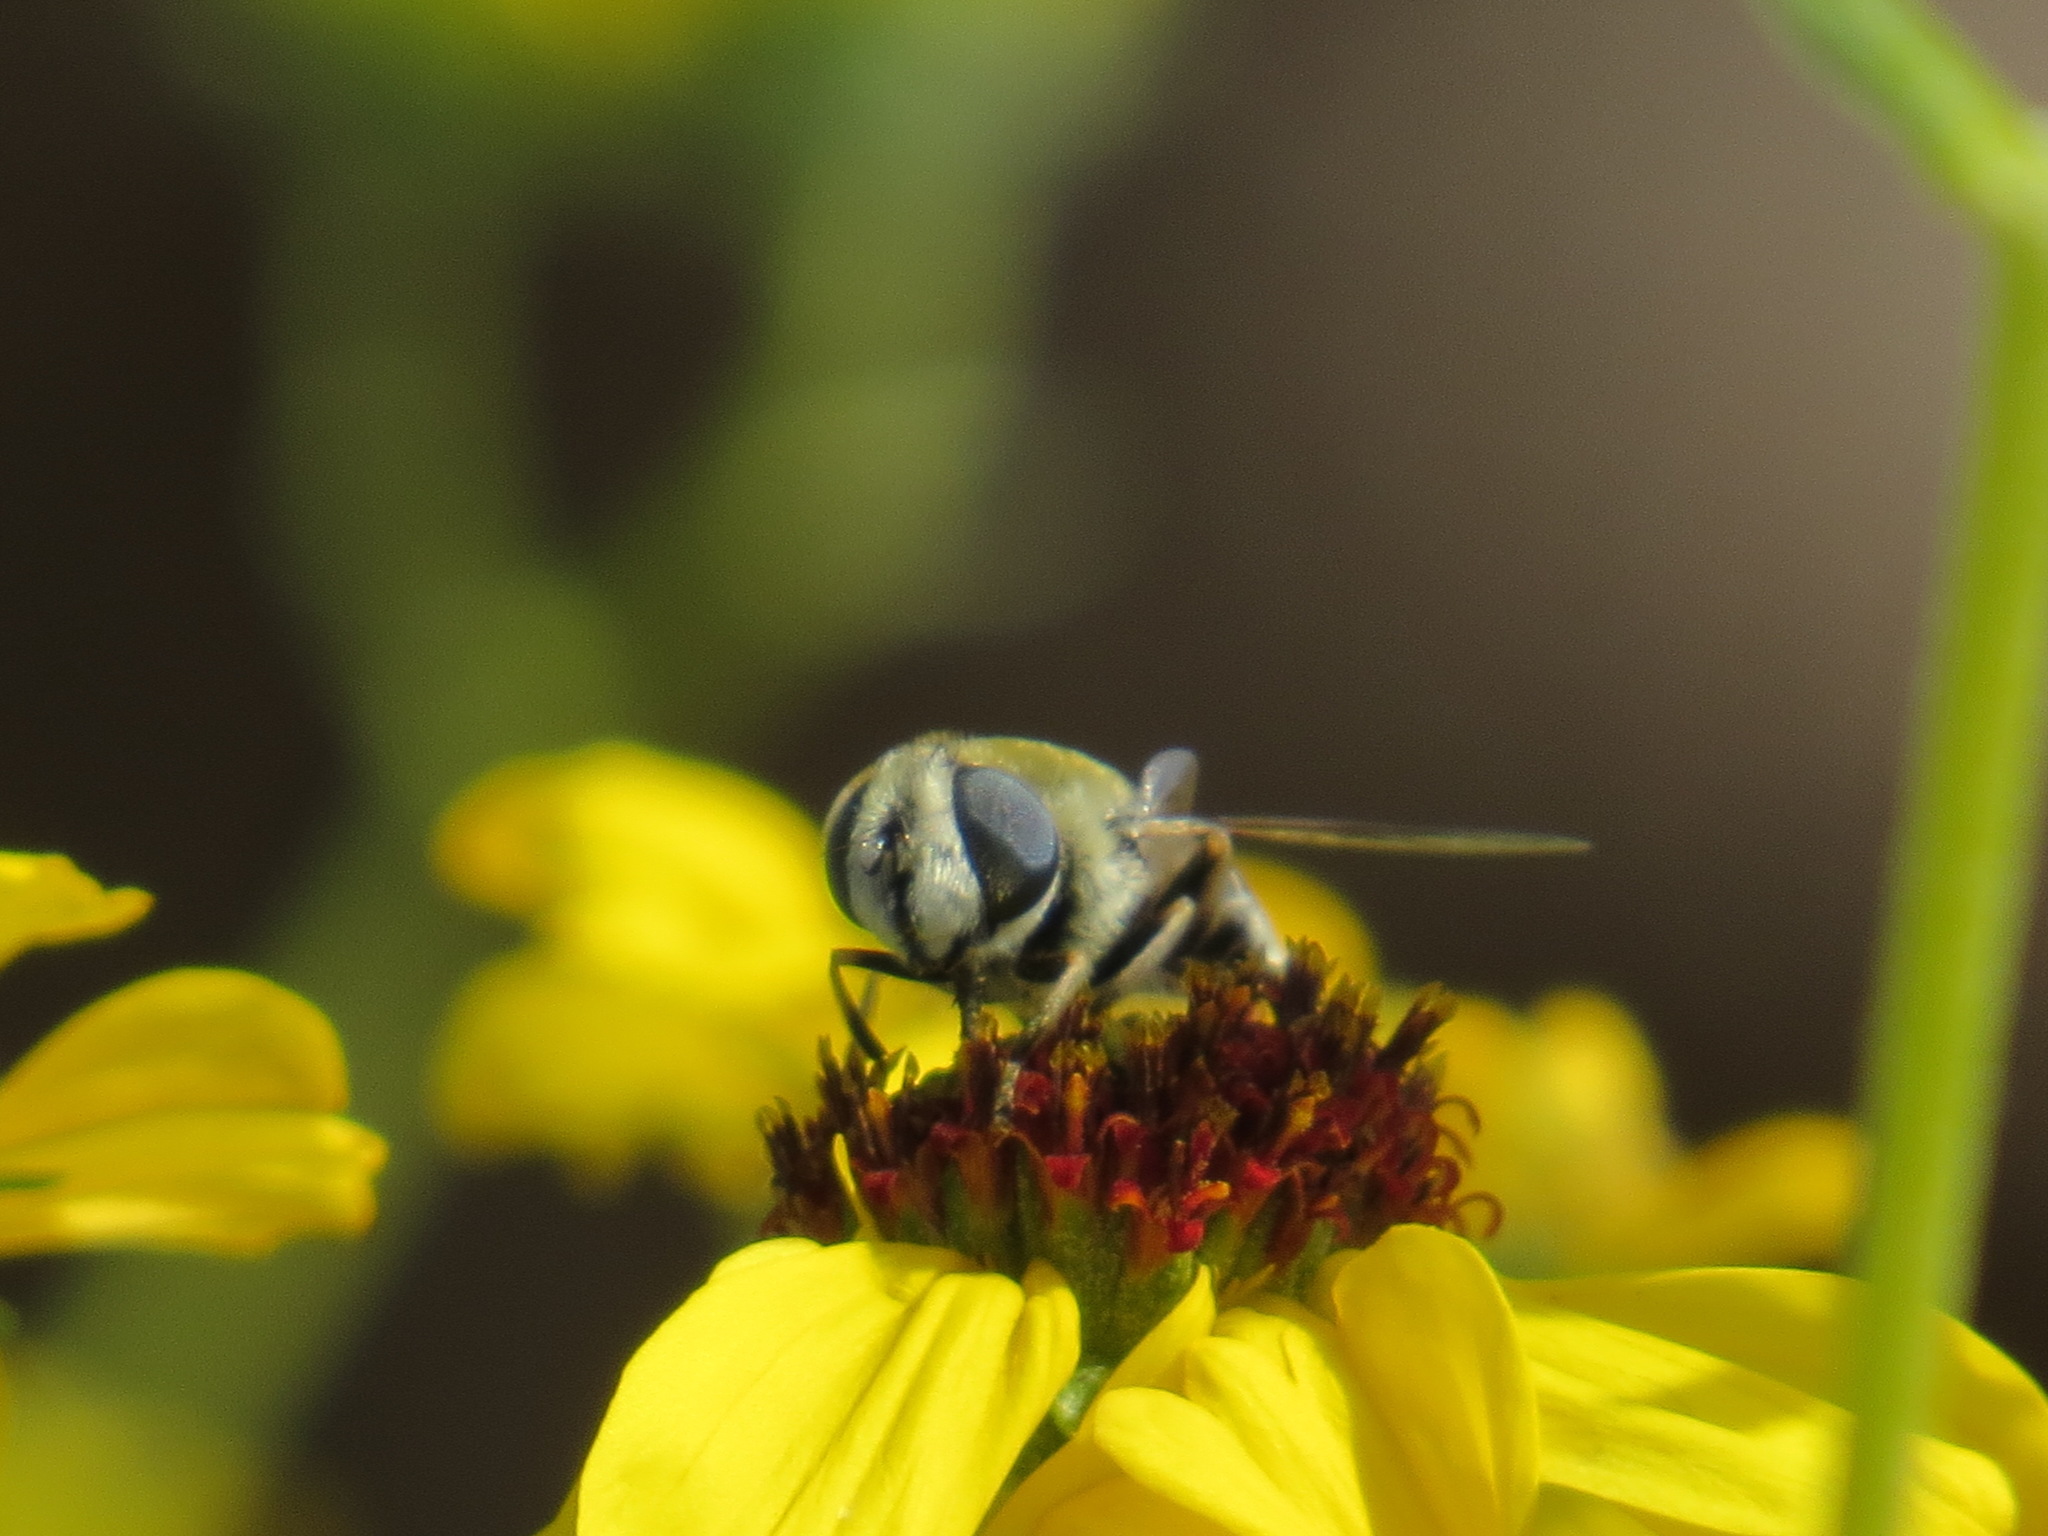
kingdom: Animalia
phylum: Arthropoda
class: Insecta
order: Diptera
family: Syrphidae
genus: Eristalis
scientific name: Eristalis stipator
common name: Yellow-shouldered drone fly
